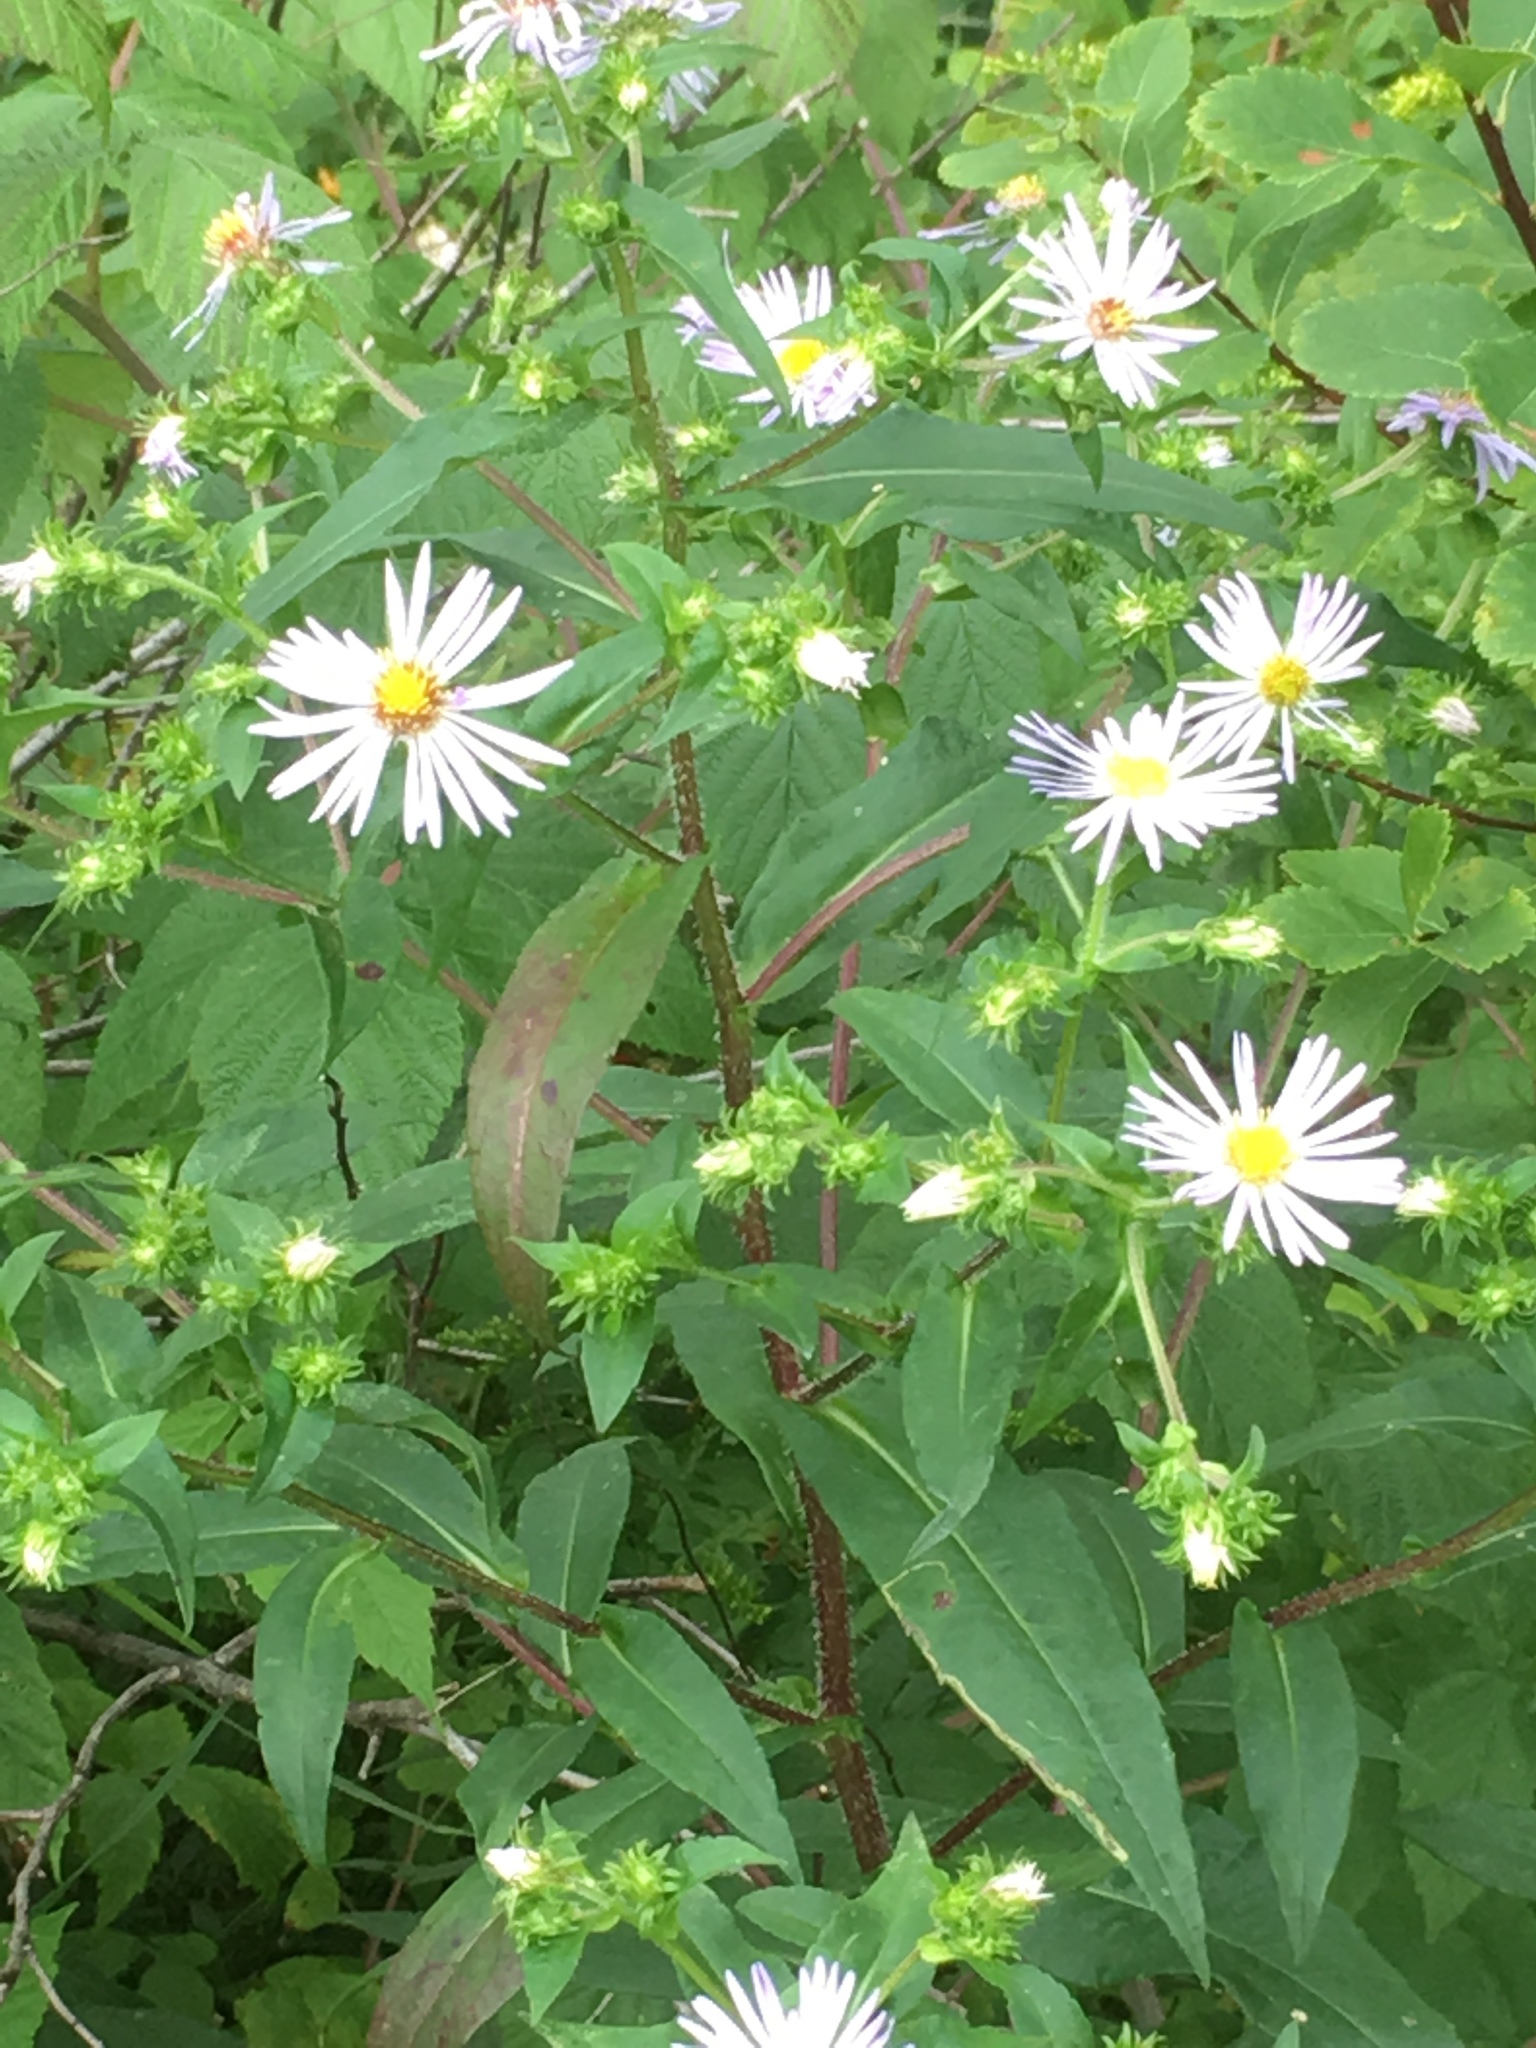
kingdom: Plantae
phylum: Tracheophyta
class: Magnoliopsida
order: Asterales
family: Asteraceae
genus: Symphyotrichum
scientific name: Symphyotrichum puniceum
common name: Bog aster
